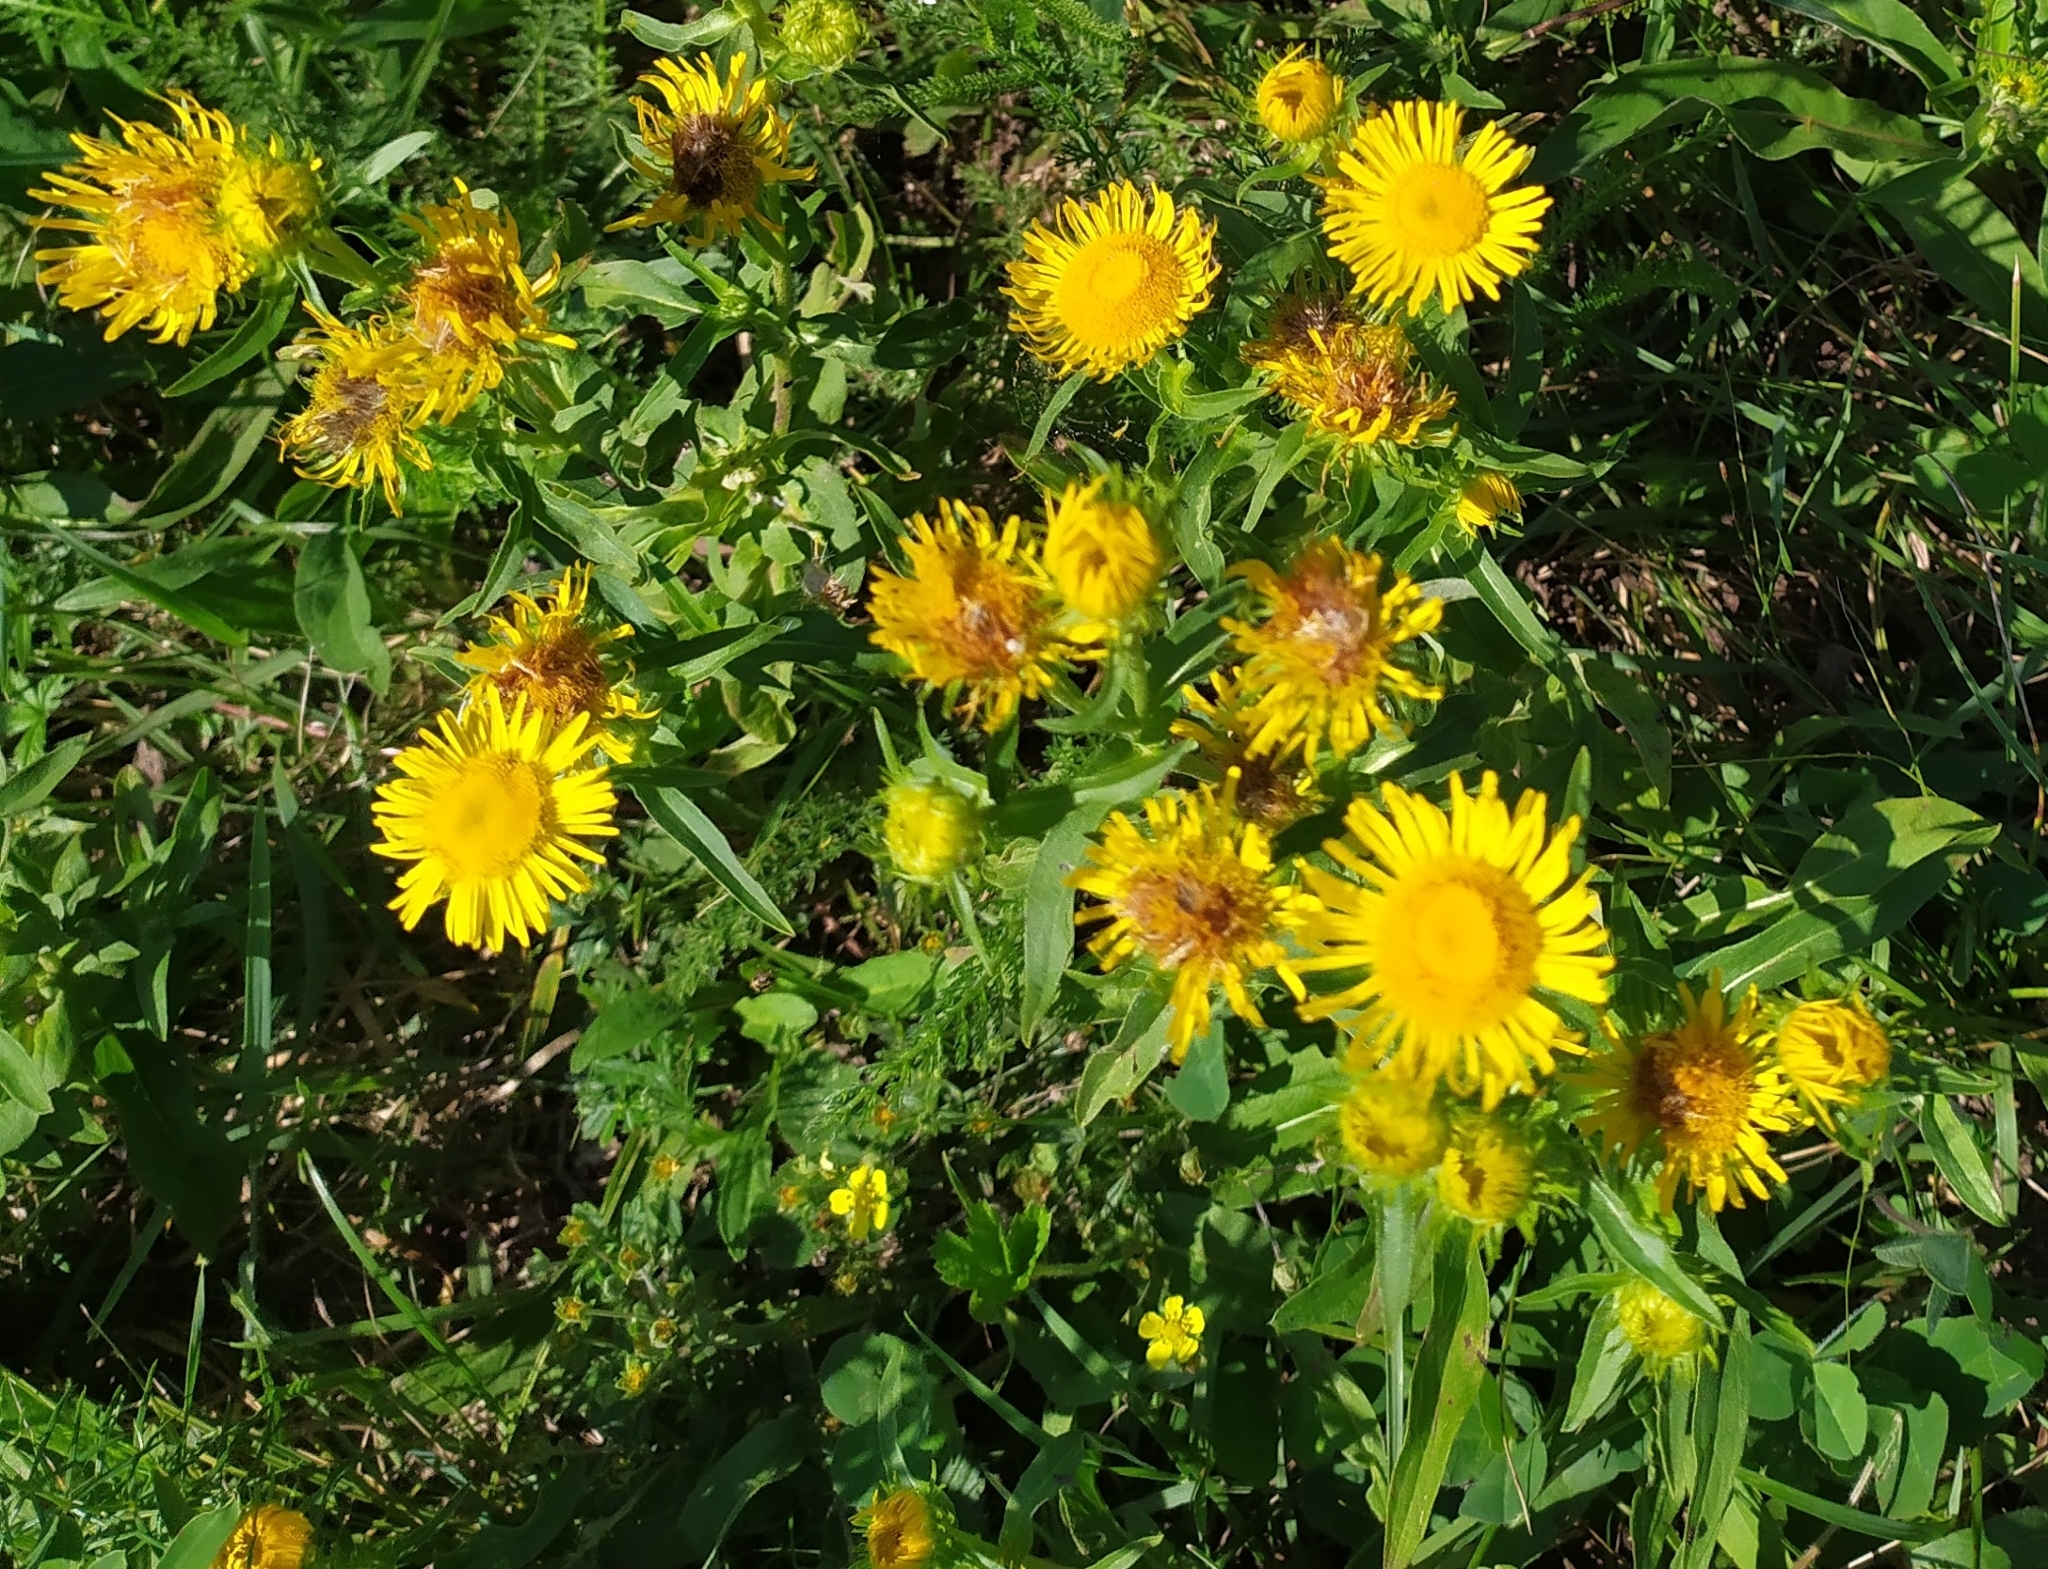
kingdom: Plantae
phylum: Tracheophyta
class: Magnoliopsida
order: Asterales
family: Asteraceae
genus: Pentanema
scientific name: Pentanema britannicum
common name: British elecampane
